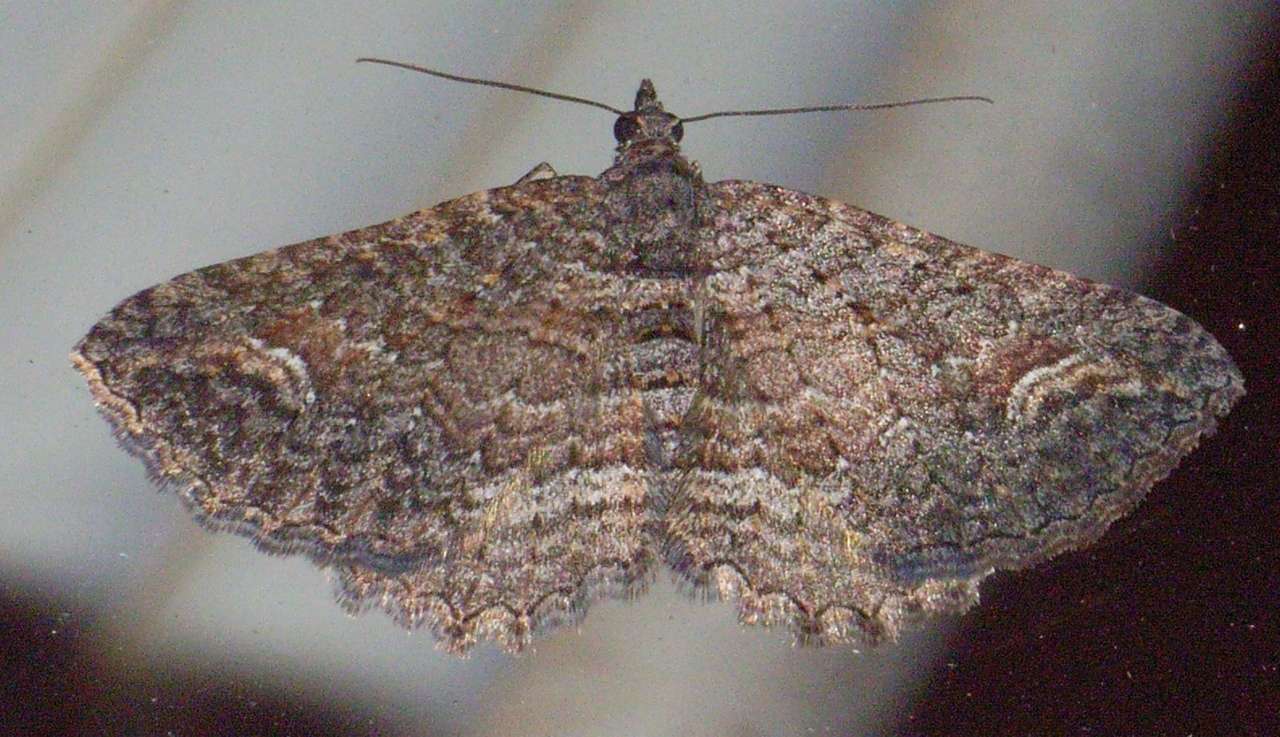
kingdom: Animalia
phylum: Arthropoda
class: Insecta
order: Lepidoptera
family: Geometridae
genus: Eupithecia
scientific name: Eupithecia Eucymatoge scotodes
